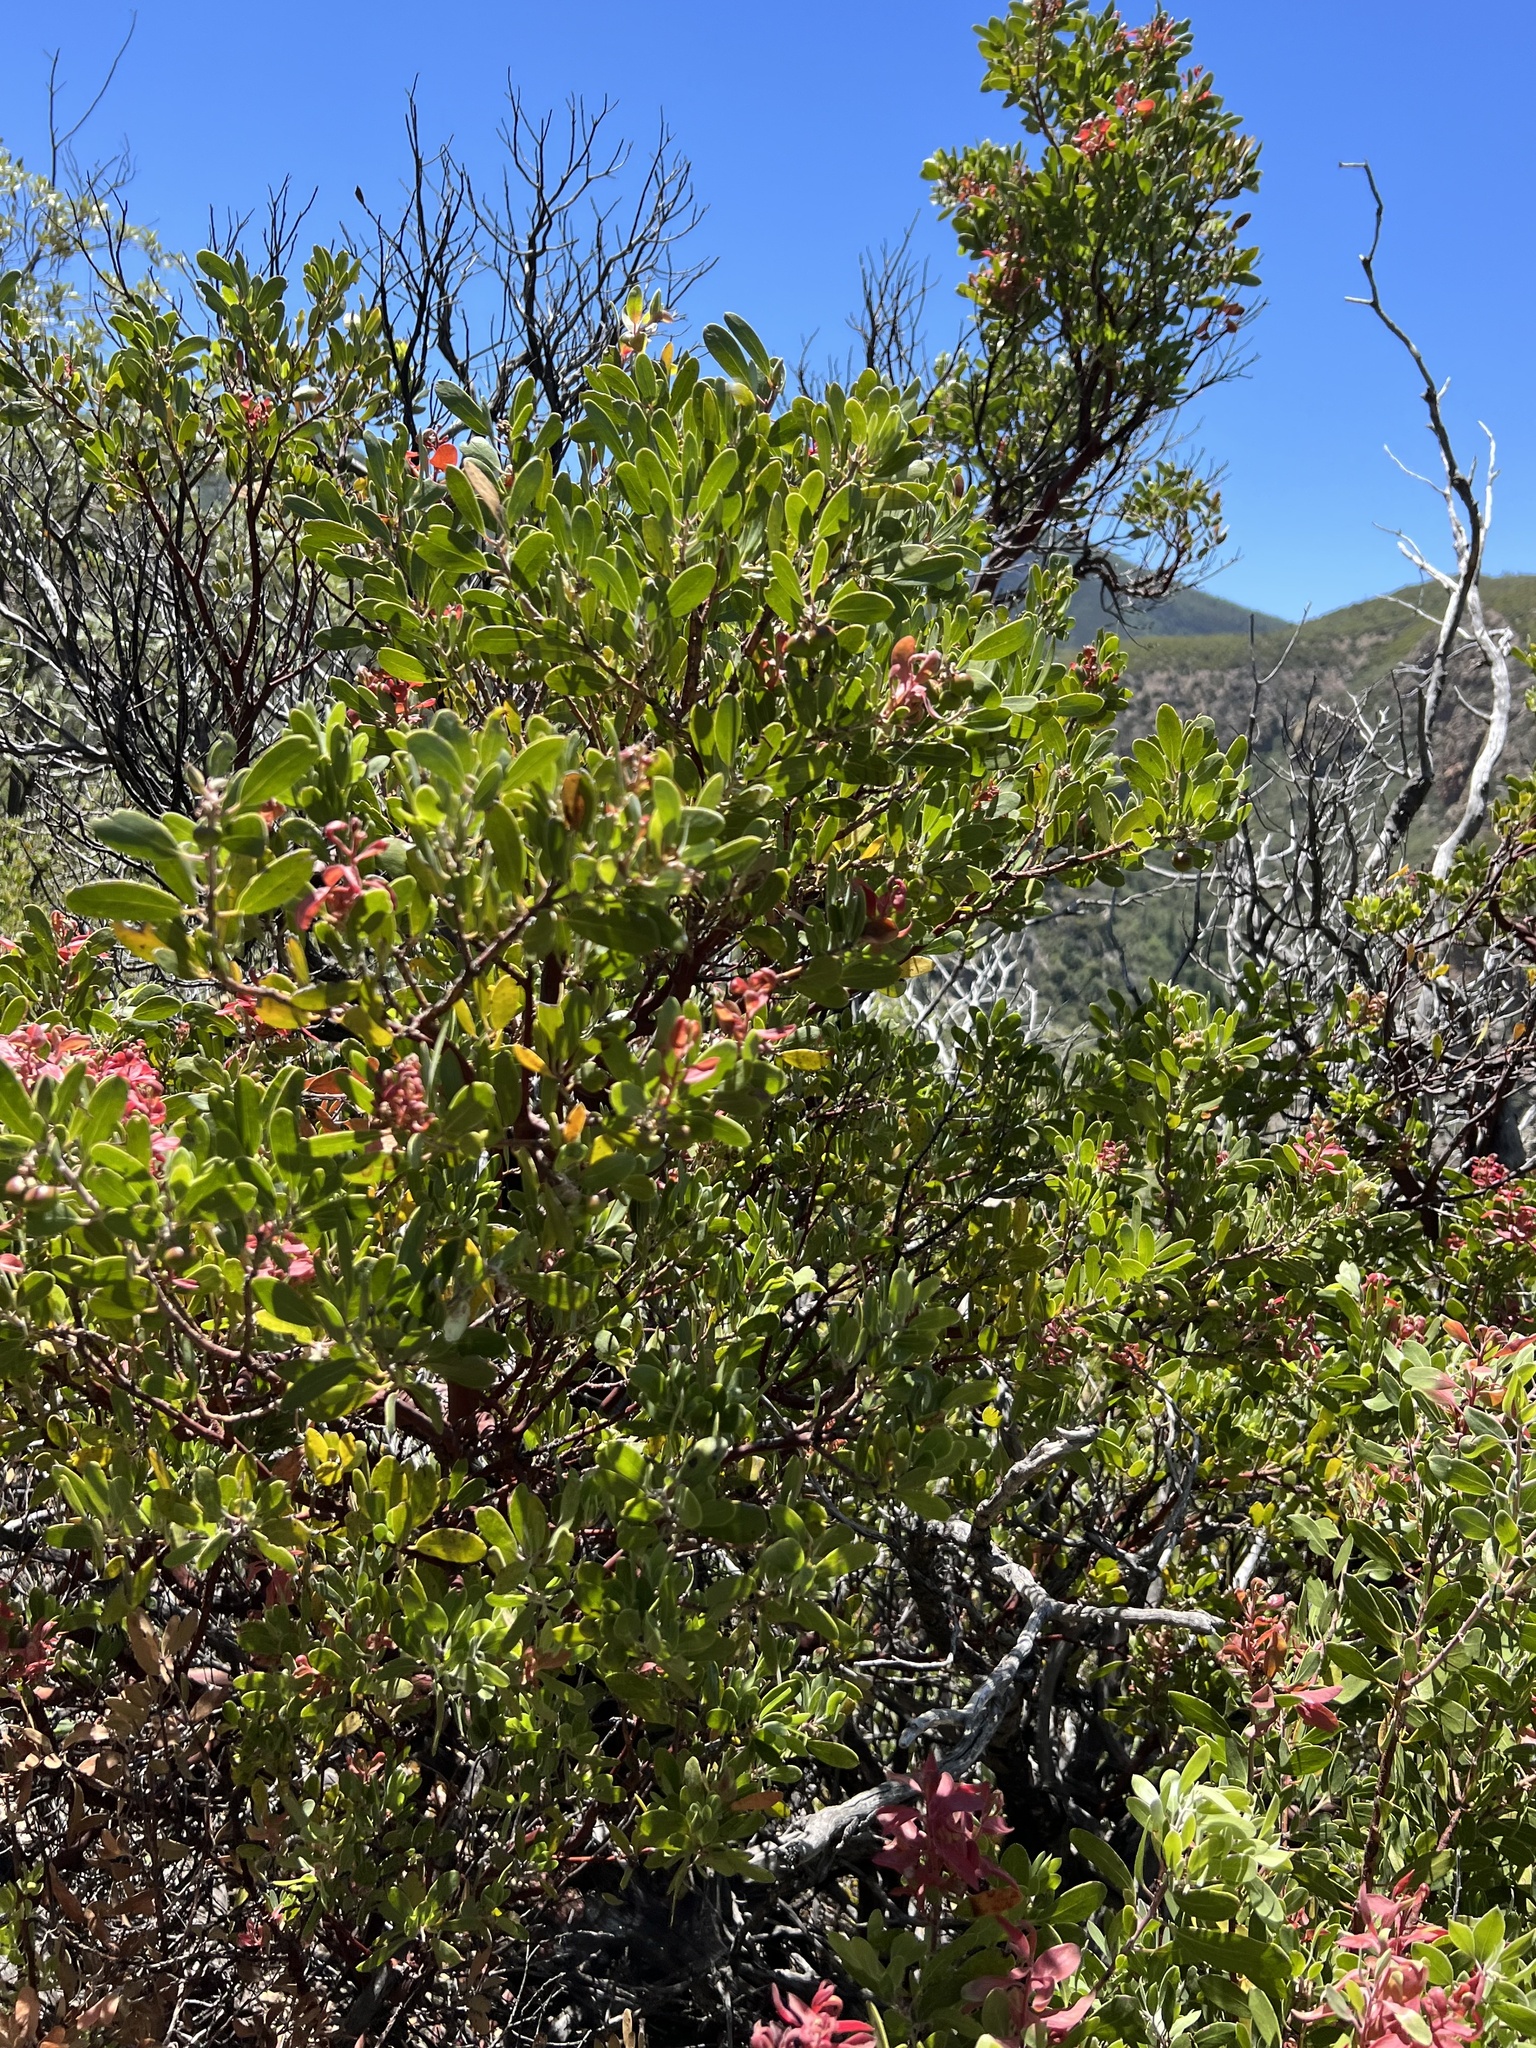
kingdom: Plantae
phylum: Tracheophyta
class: Magnoliopsida
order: Ericales
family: Ericaceae
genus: Arctostaphylos
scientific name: Arctostaphylos pungens
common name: Mexican manzanita
